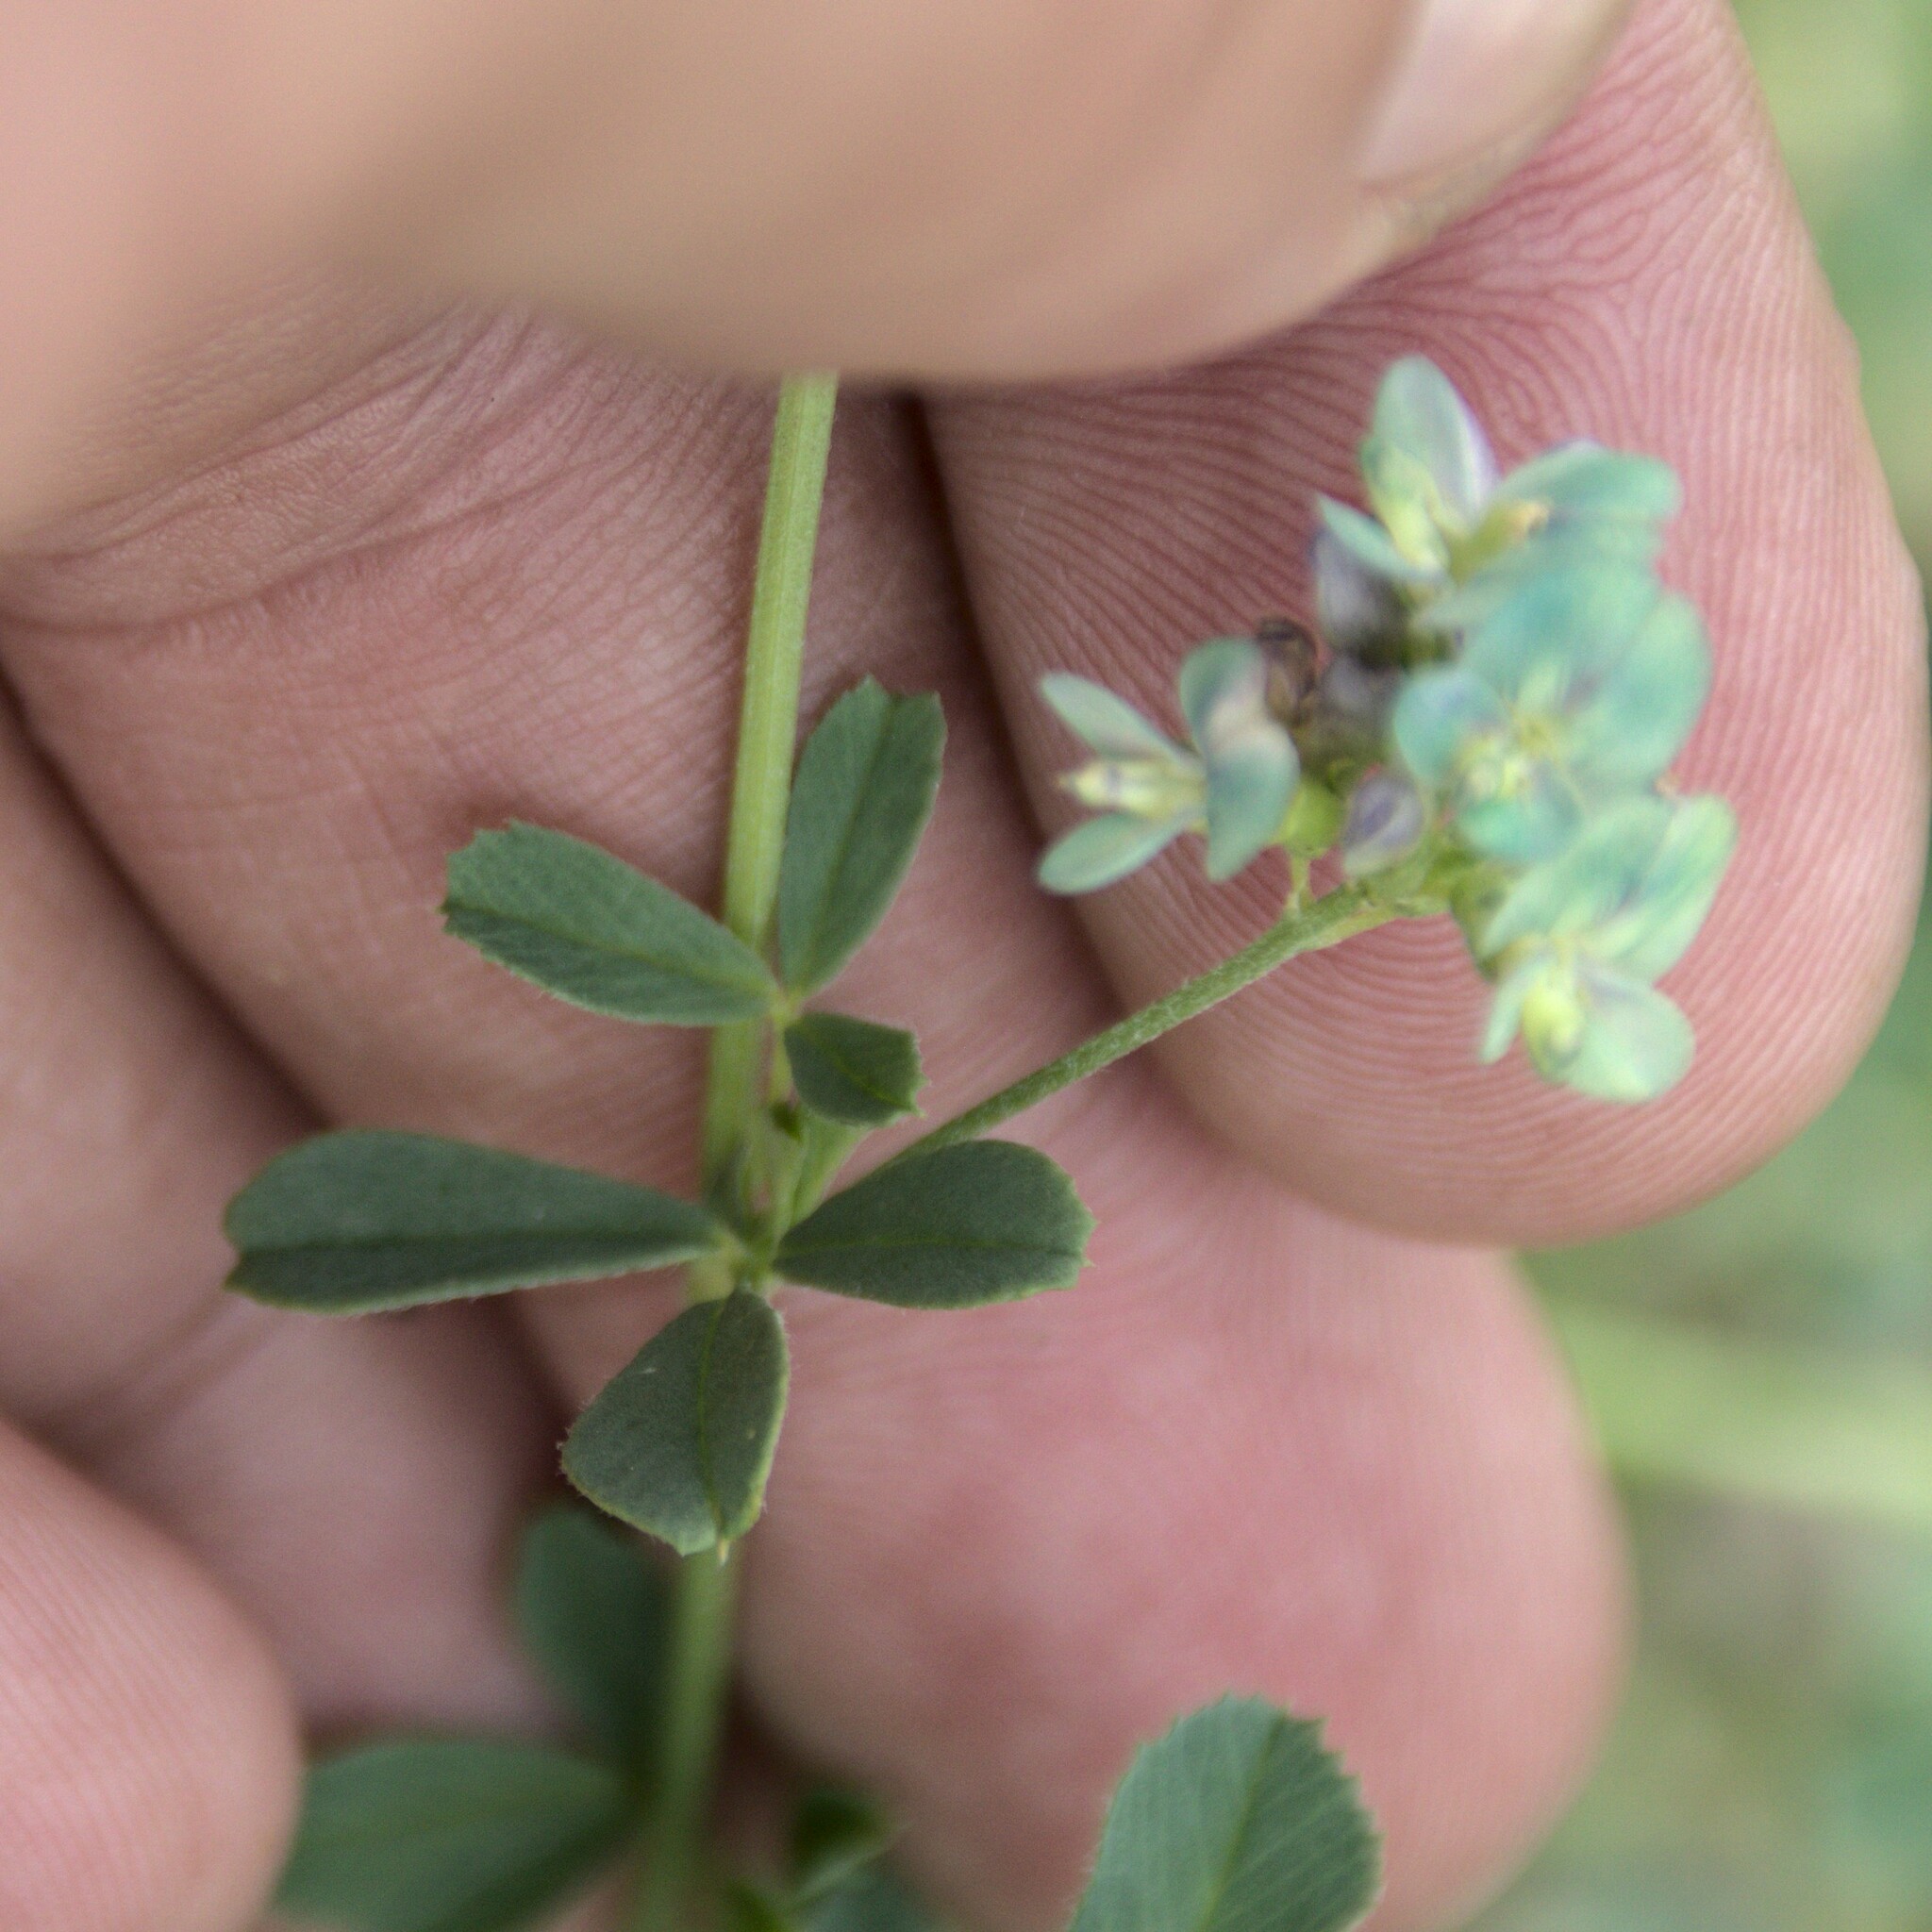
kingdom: Plantae
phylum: Tracheophyta
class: Magnoliopsida
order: Fabales
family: Fabaceae
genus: Medicago
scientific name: Medicago varia
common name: Sand lucerne
